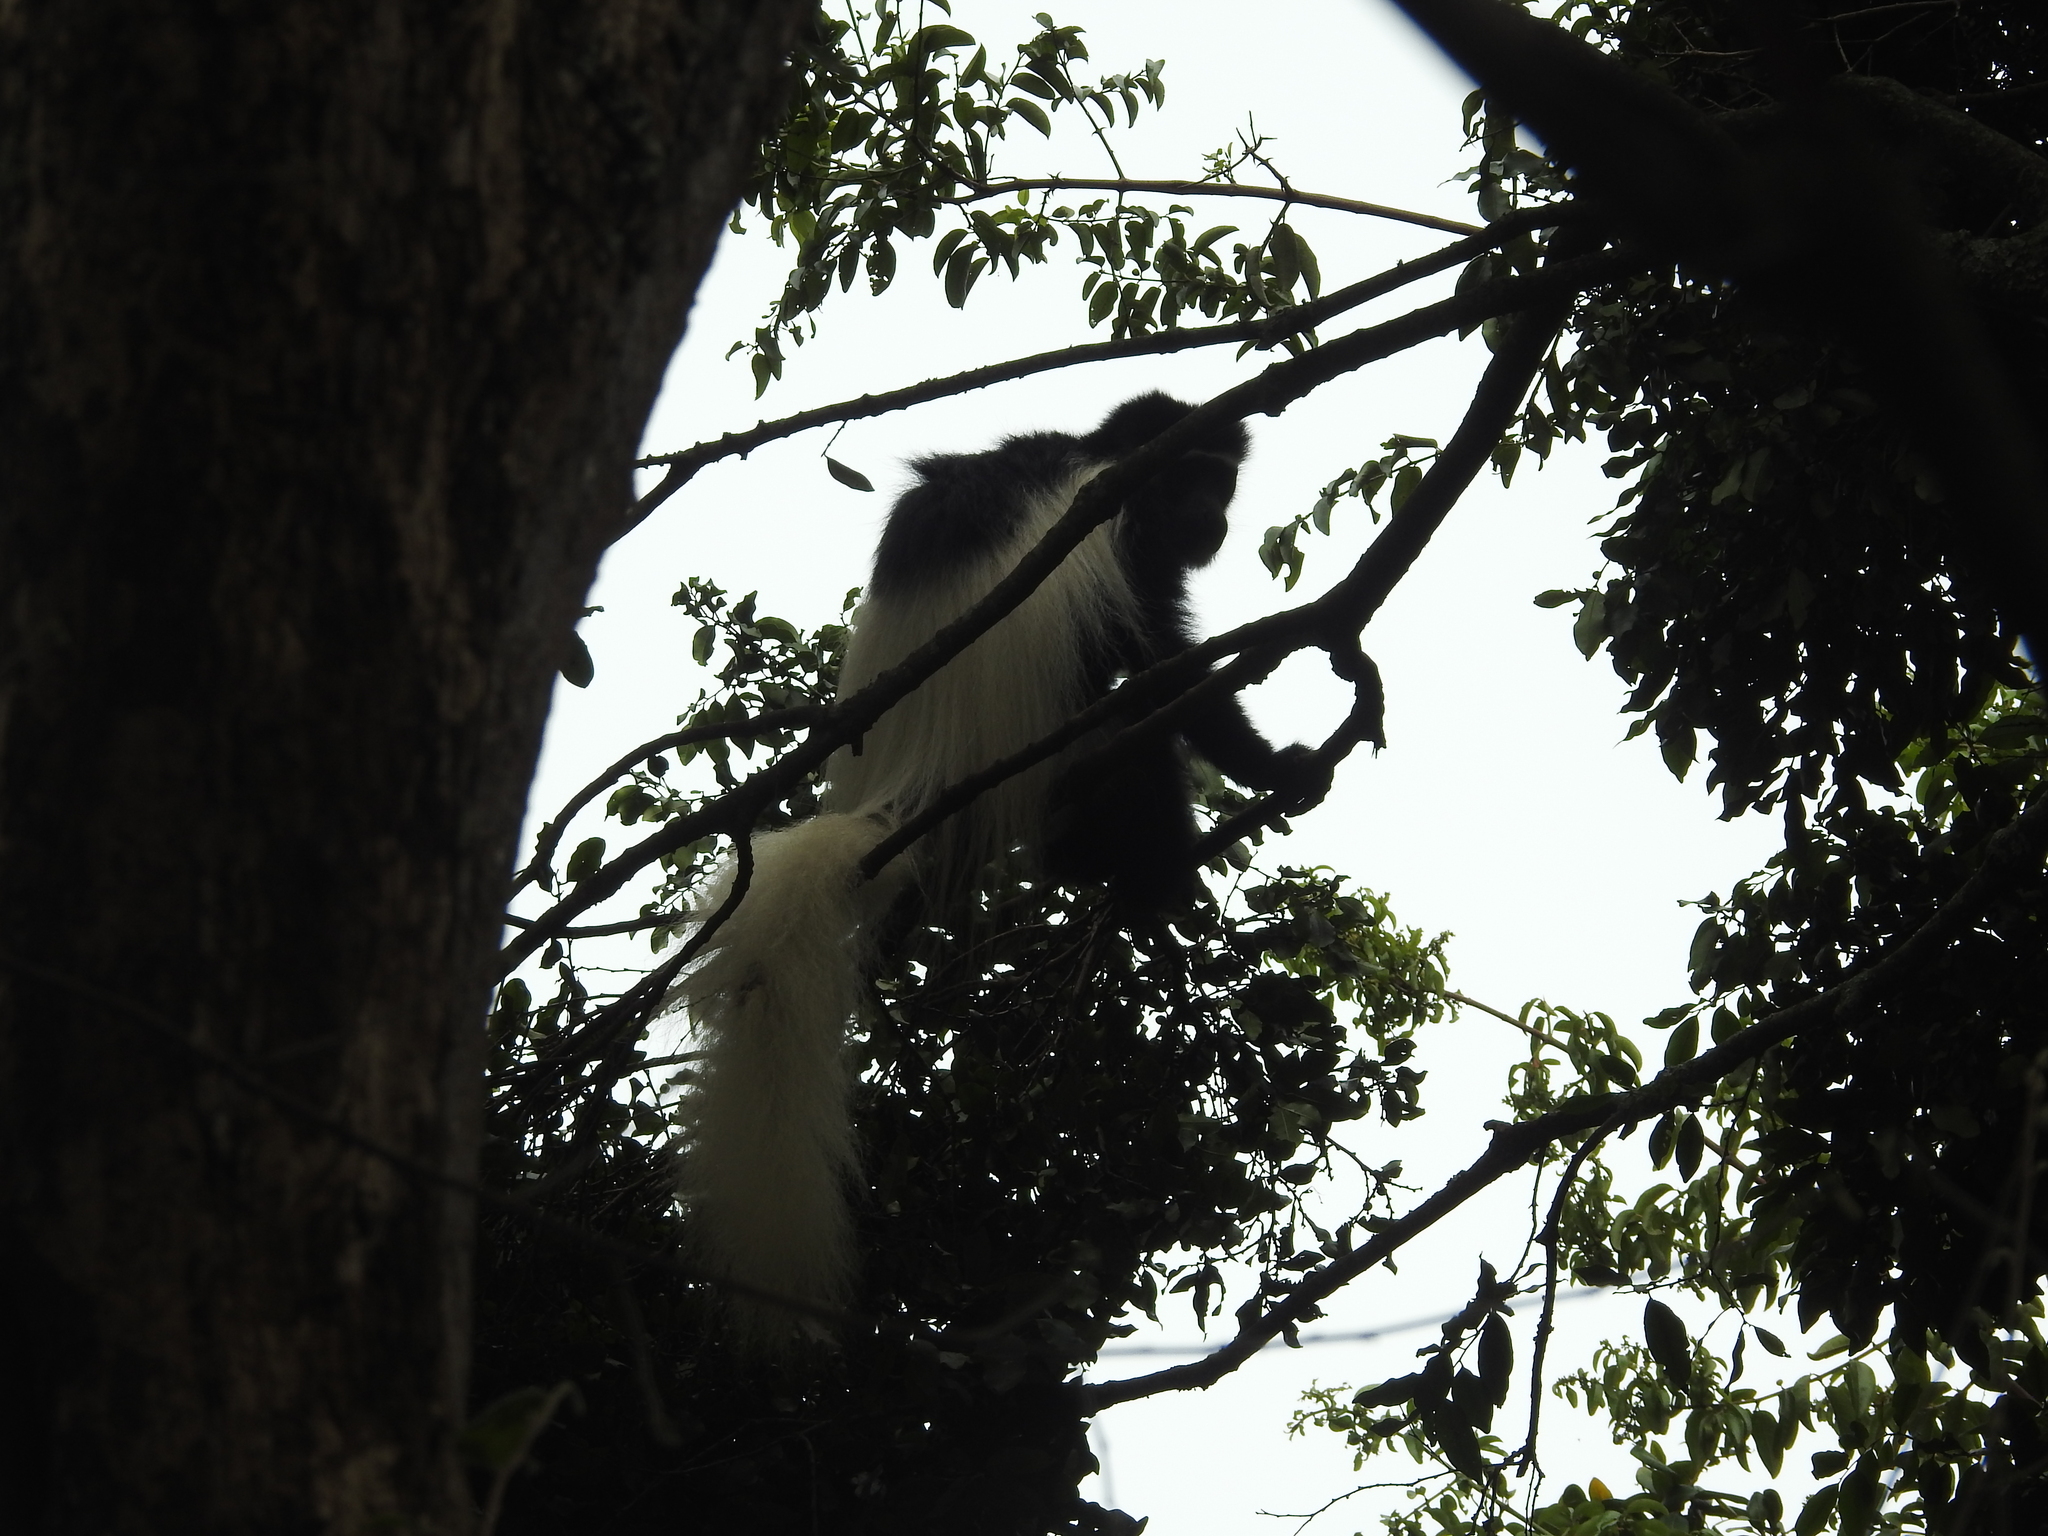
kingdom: Animalia
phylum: Chordata
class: Mammalia
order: Primates
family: Cercopithecidae
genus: Colobus
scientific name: Colobus caudatus
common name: Mount kilimanjaro guereza
